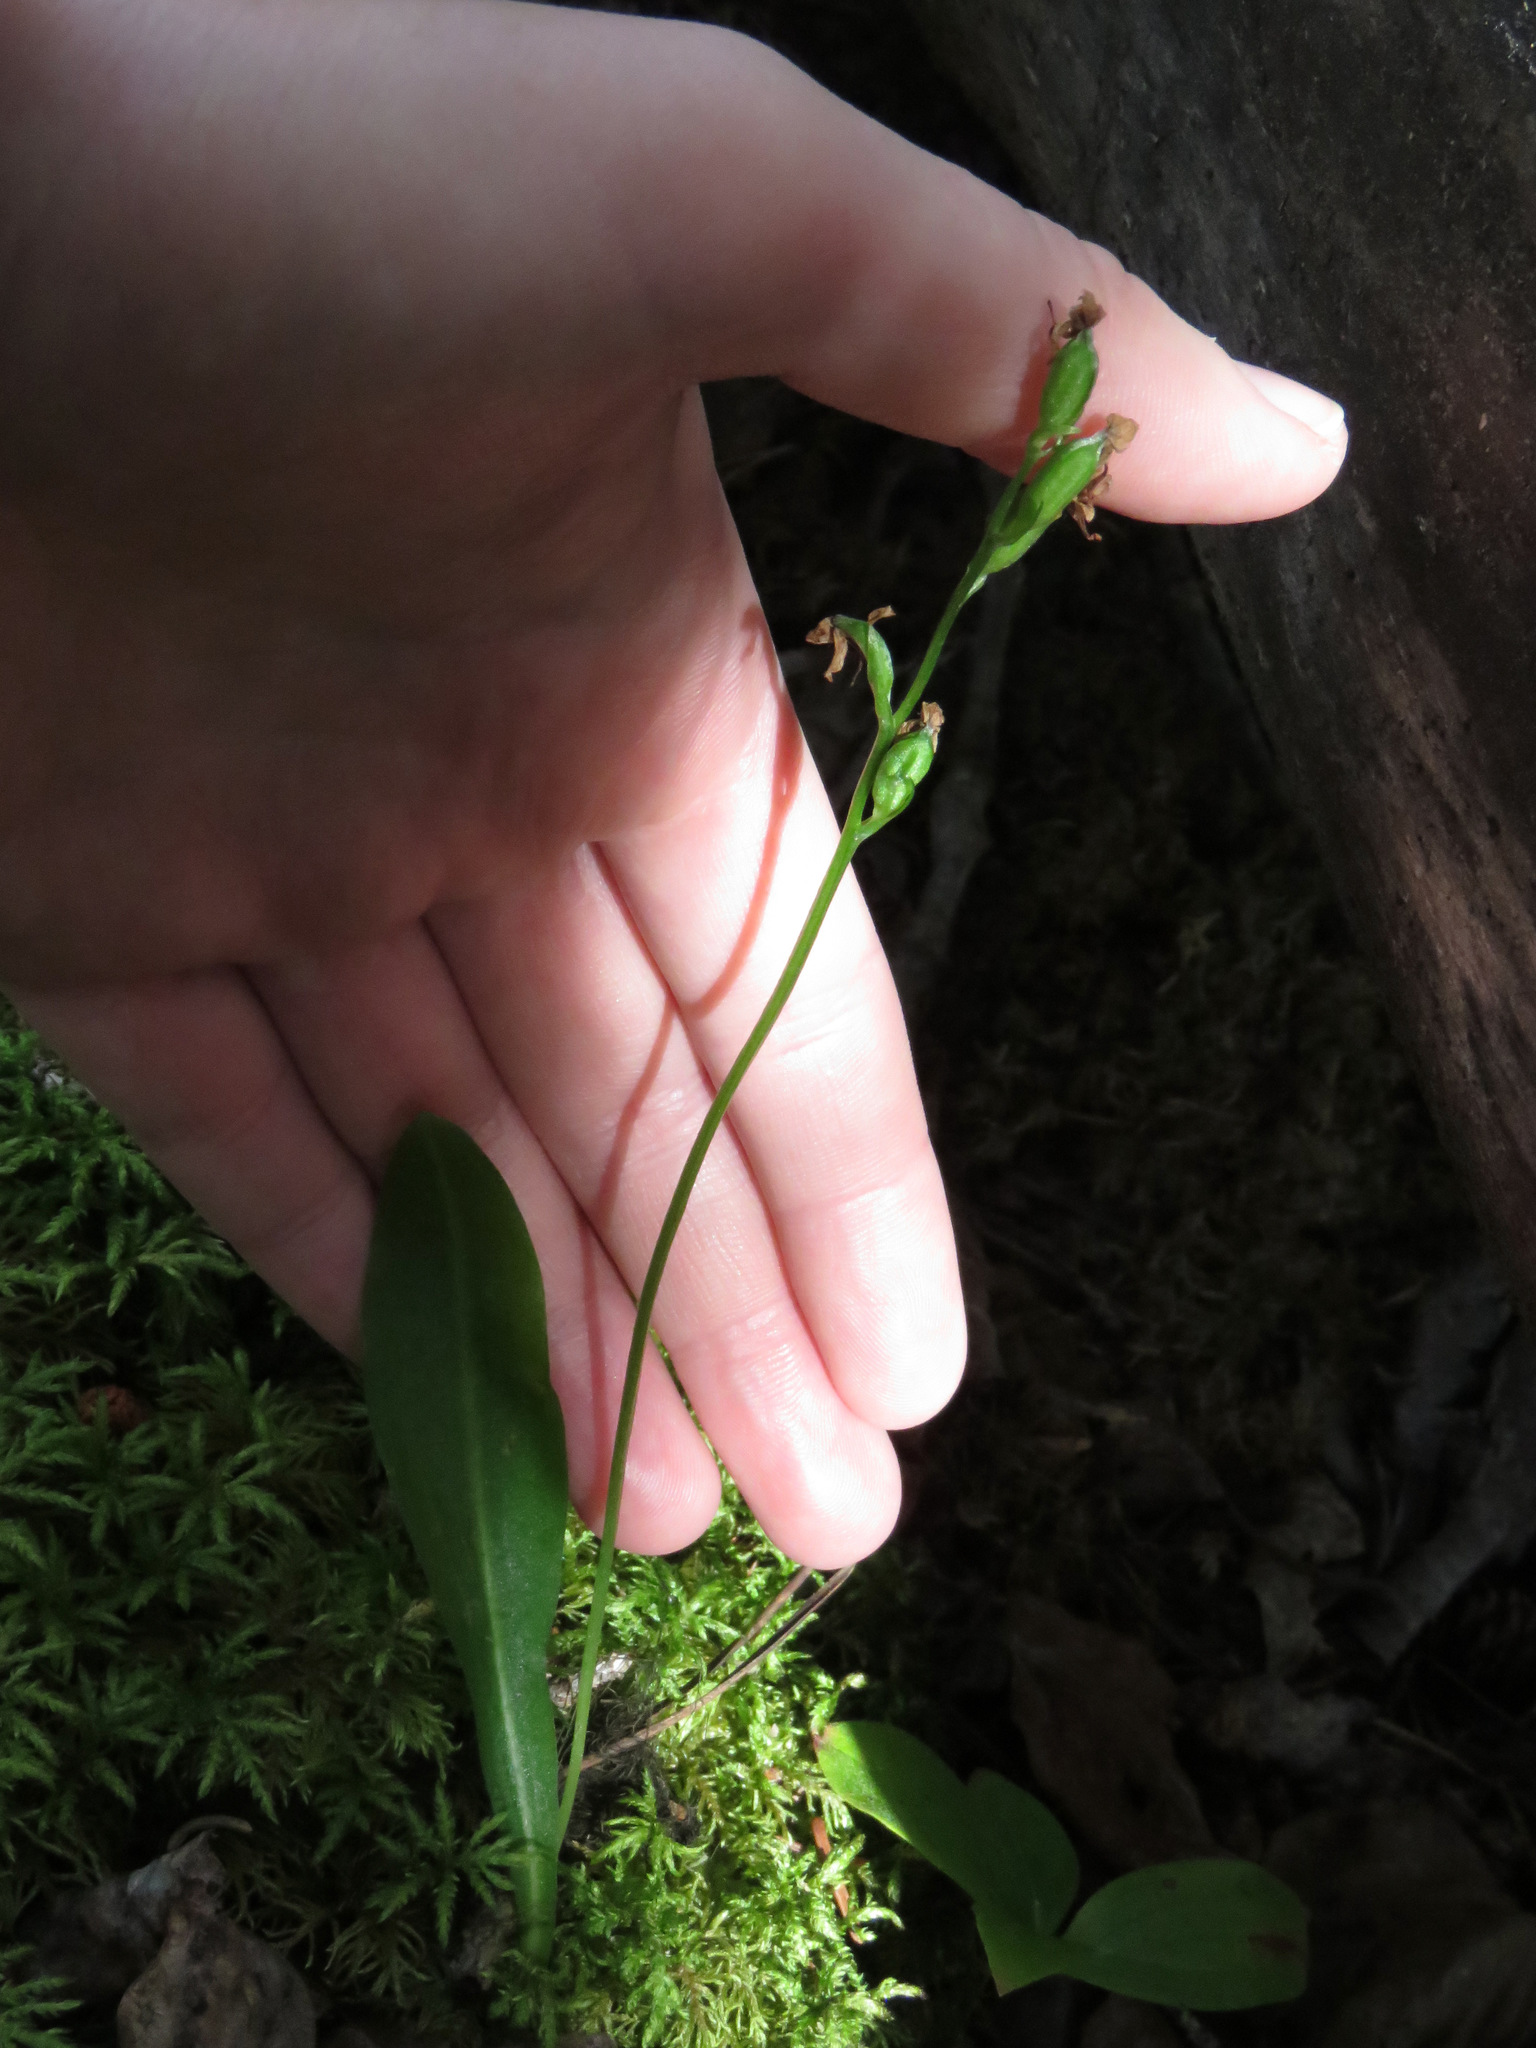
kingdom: Plantae
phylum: Tracheophyta
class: Liliopsida
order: Asparagales
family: Orchidaceae
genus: Platanthera
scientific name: Platanthera obtusata
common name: Blunt bog orchid
